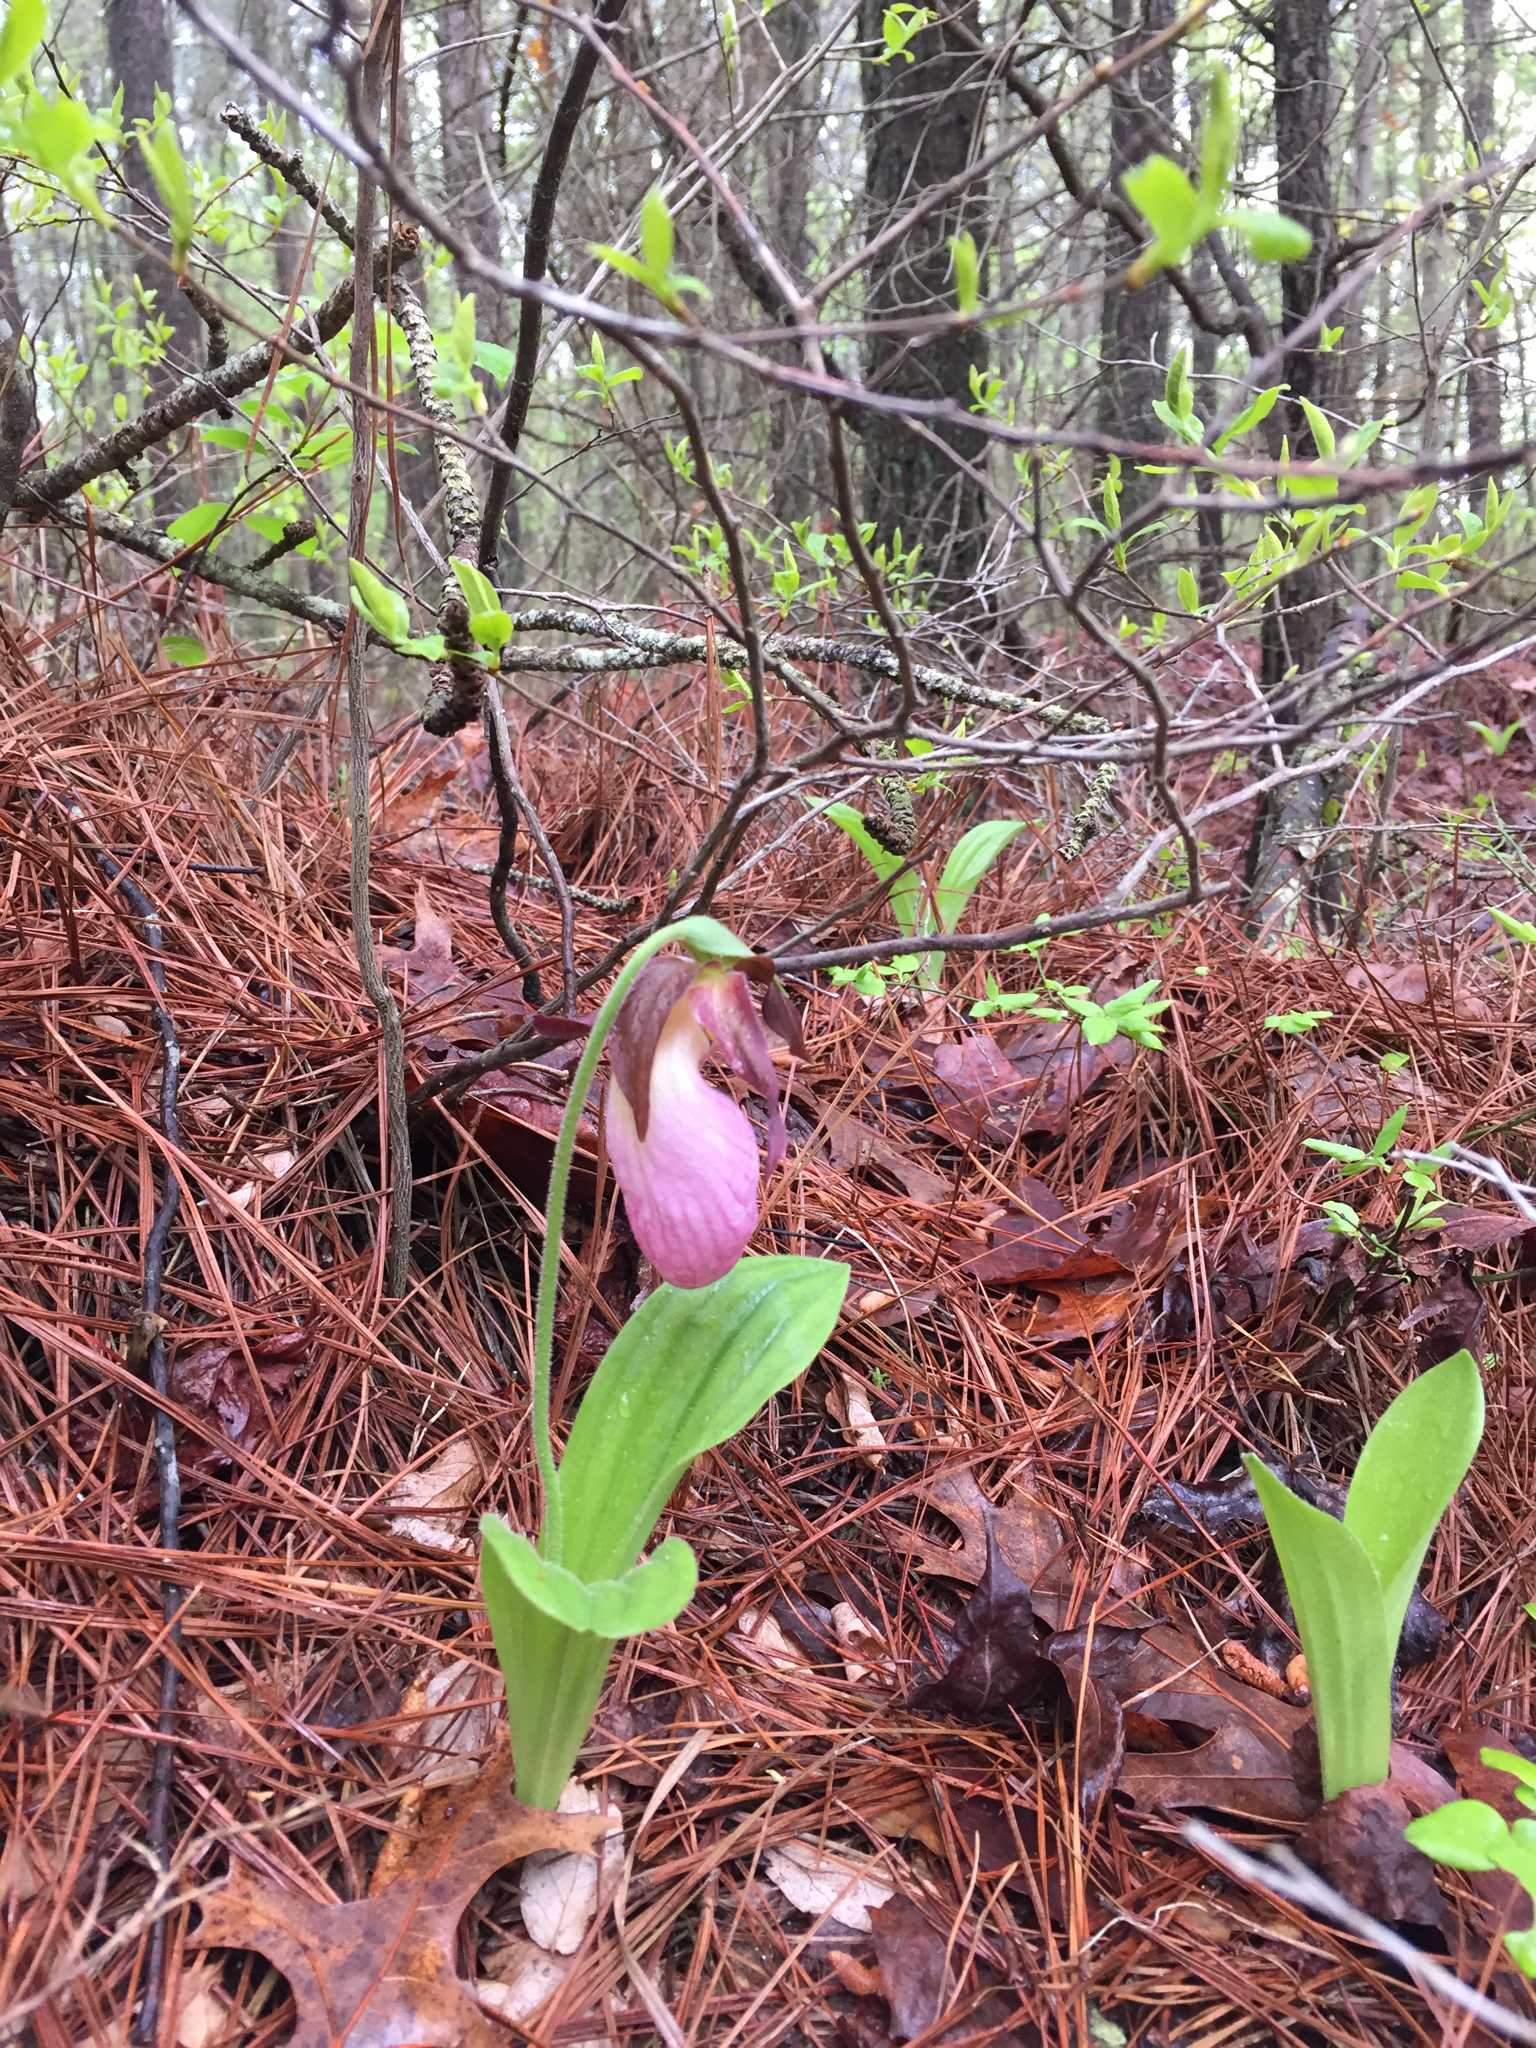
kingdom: Plantae
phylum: Tracheophyta
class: Liliopsida
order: Asparagales
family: Orchidaceae
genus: Cypripedium
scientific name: Cypripedium acaule
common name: Pink lady's-slipper
